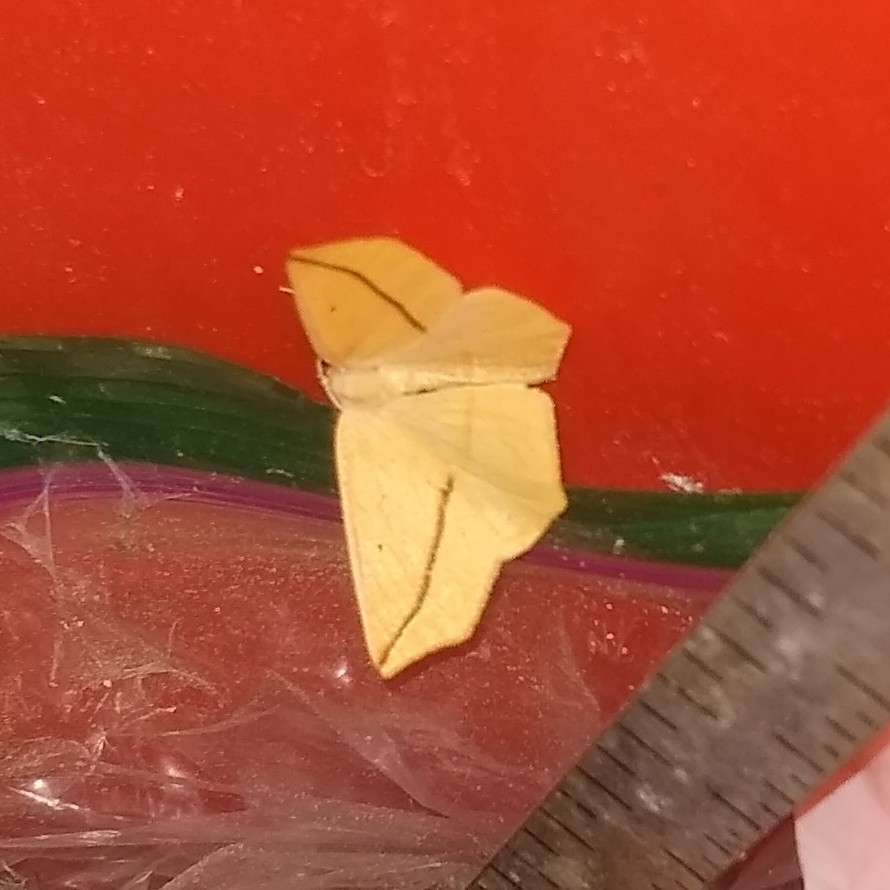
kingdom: Animalia
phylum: Arthropoda
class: Insecta
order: Lepidoptera
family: Geometridae
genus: Tetracis
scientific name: Tetracis crocallata
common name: Yellow slant-line
